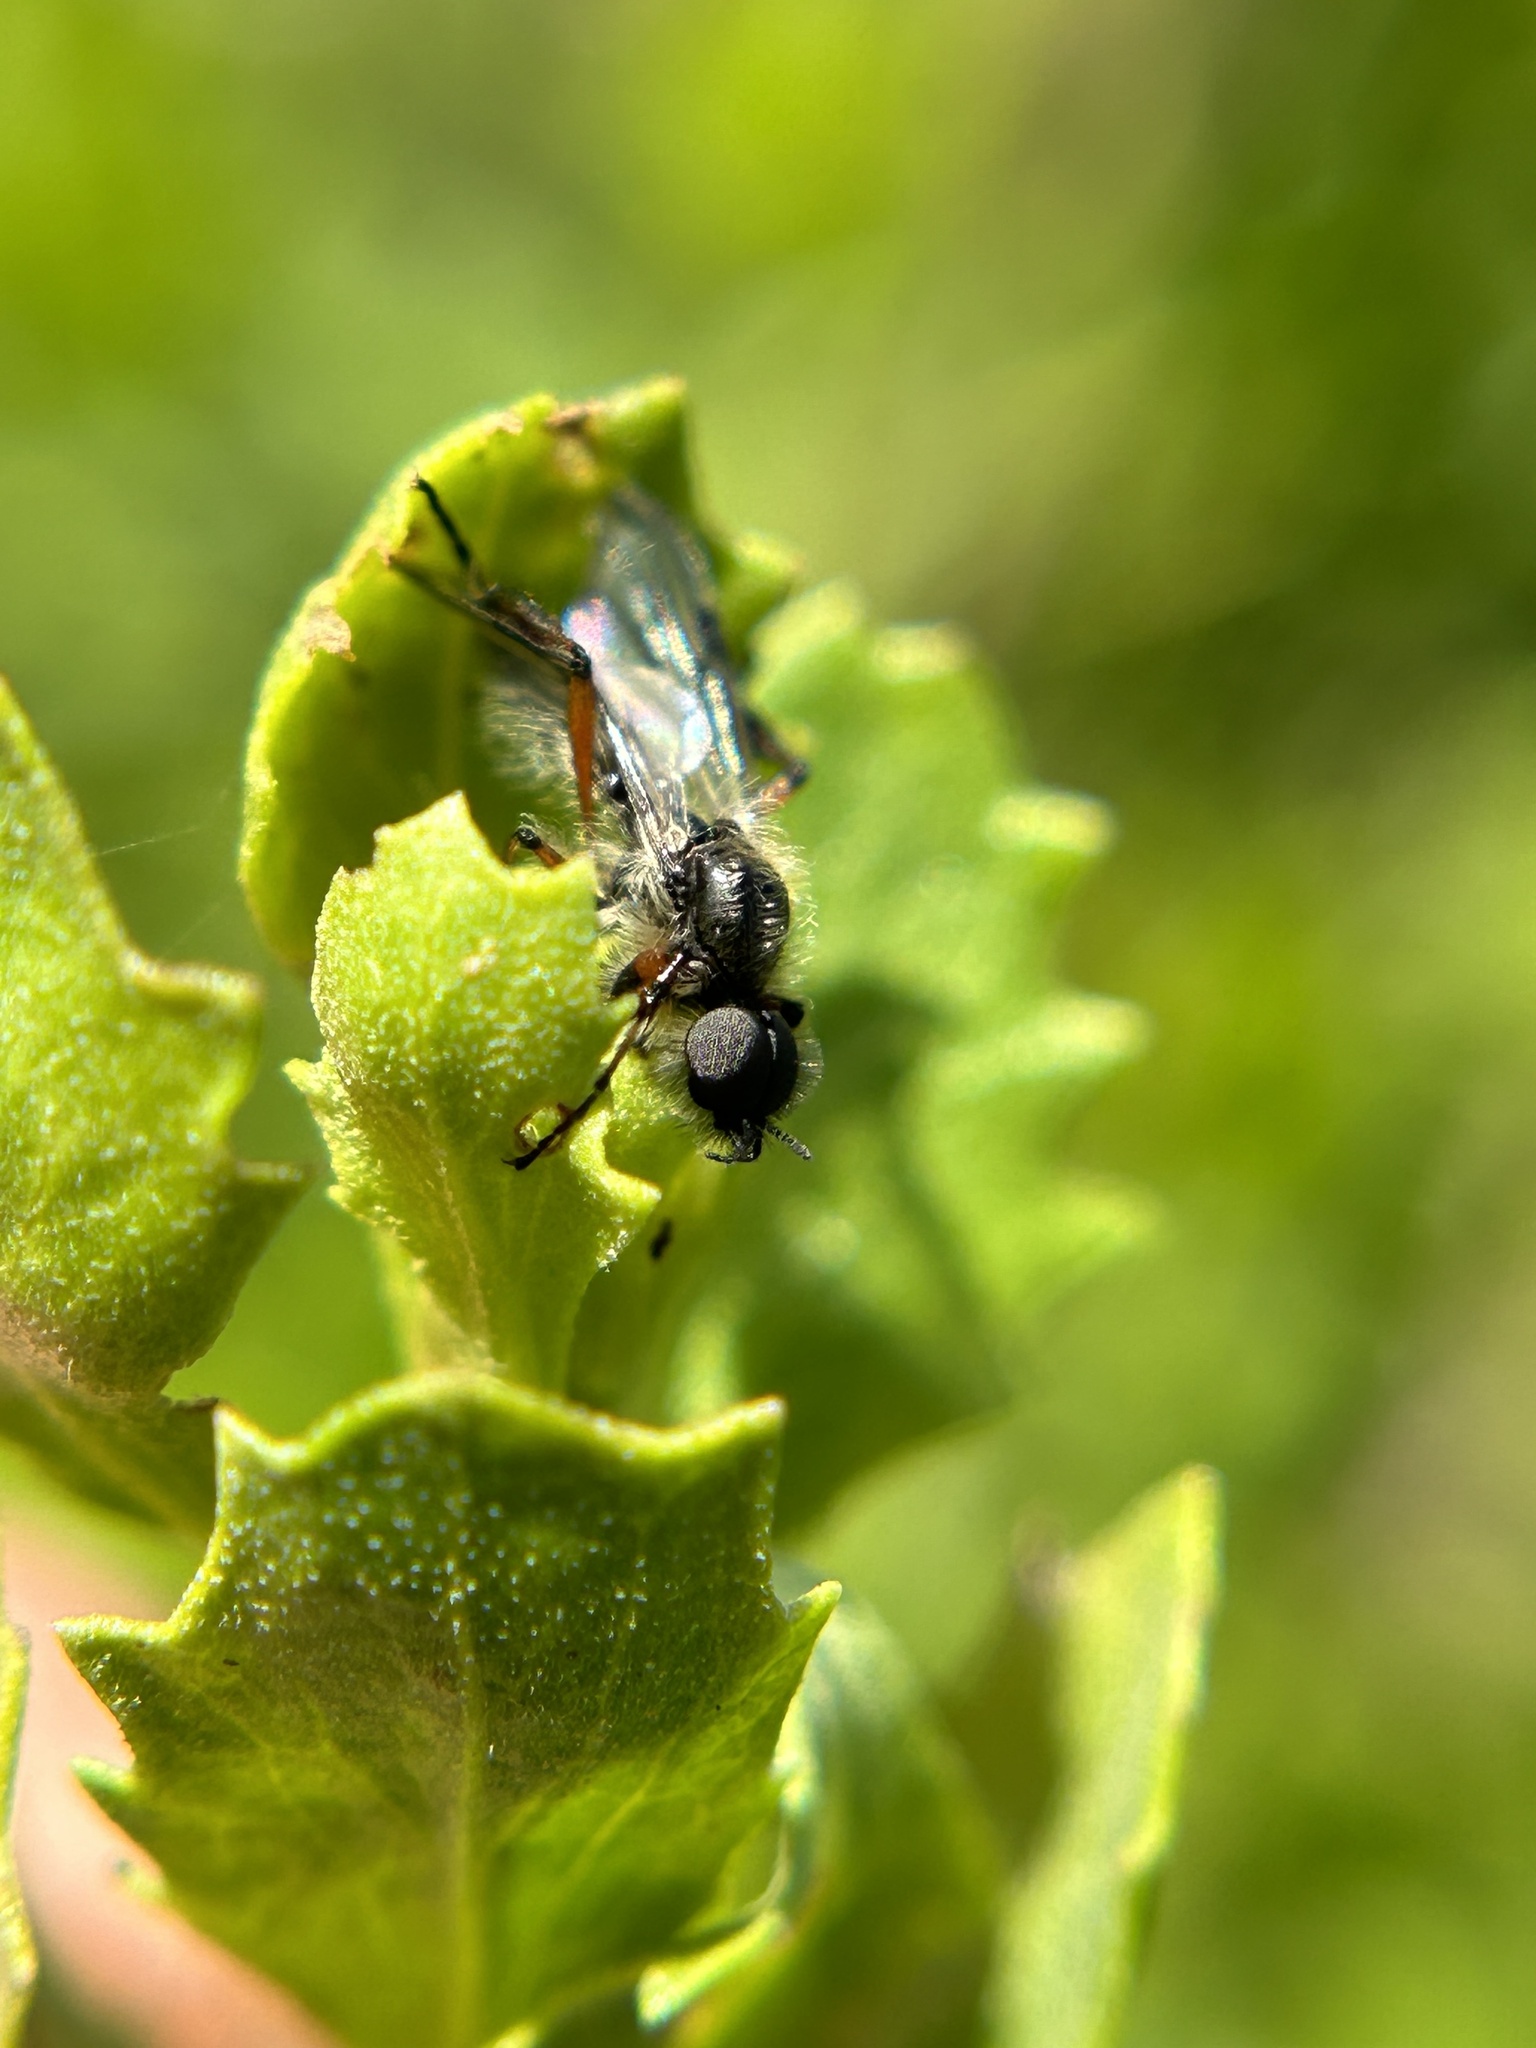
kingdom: Animalia
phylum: Arthropoda
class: Insecta
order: Diptera
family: Bibionidae
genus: Bibio
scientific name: Bibio
